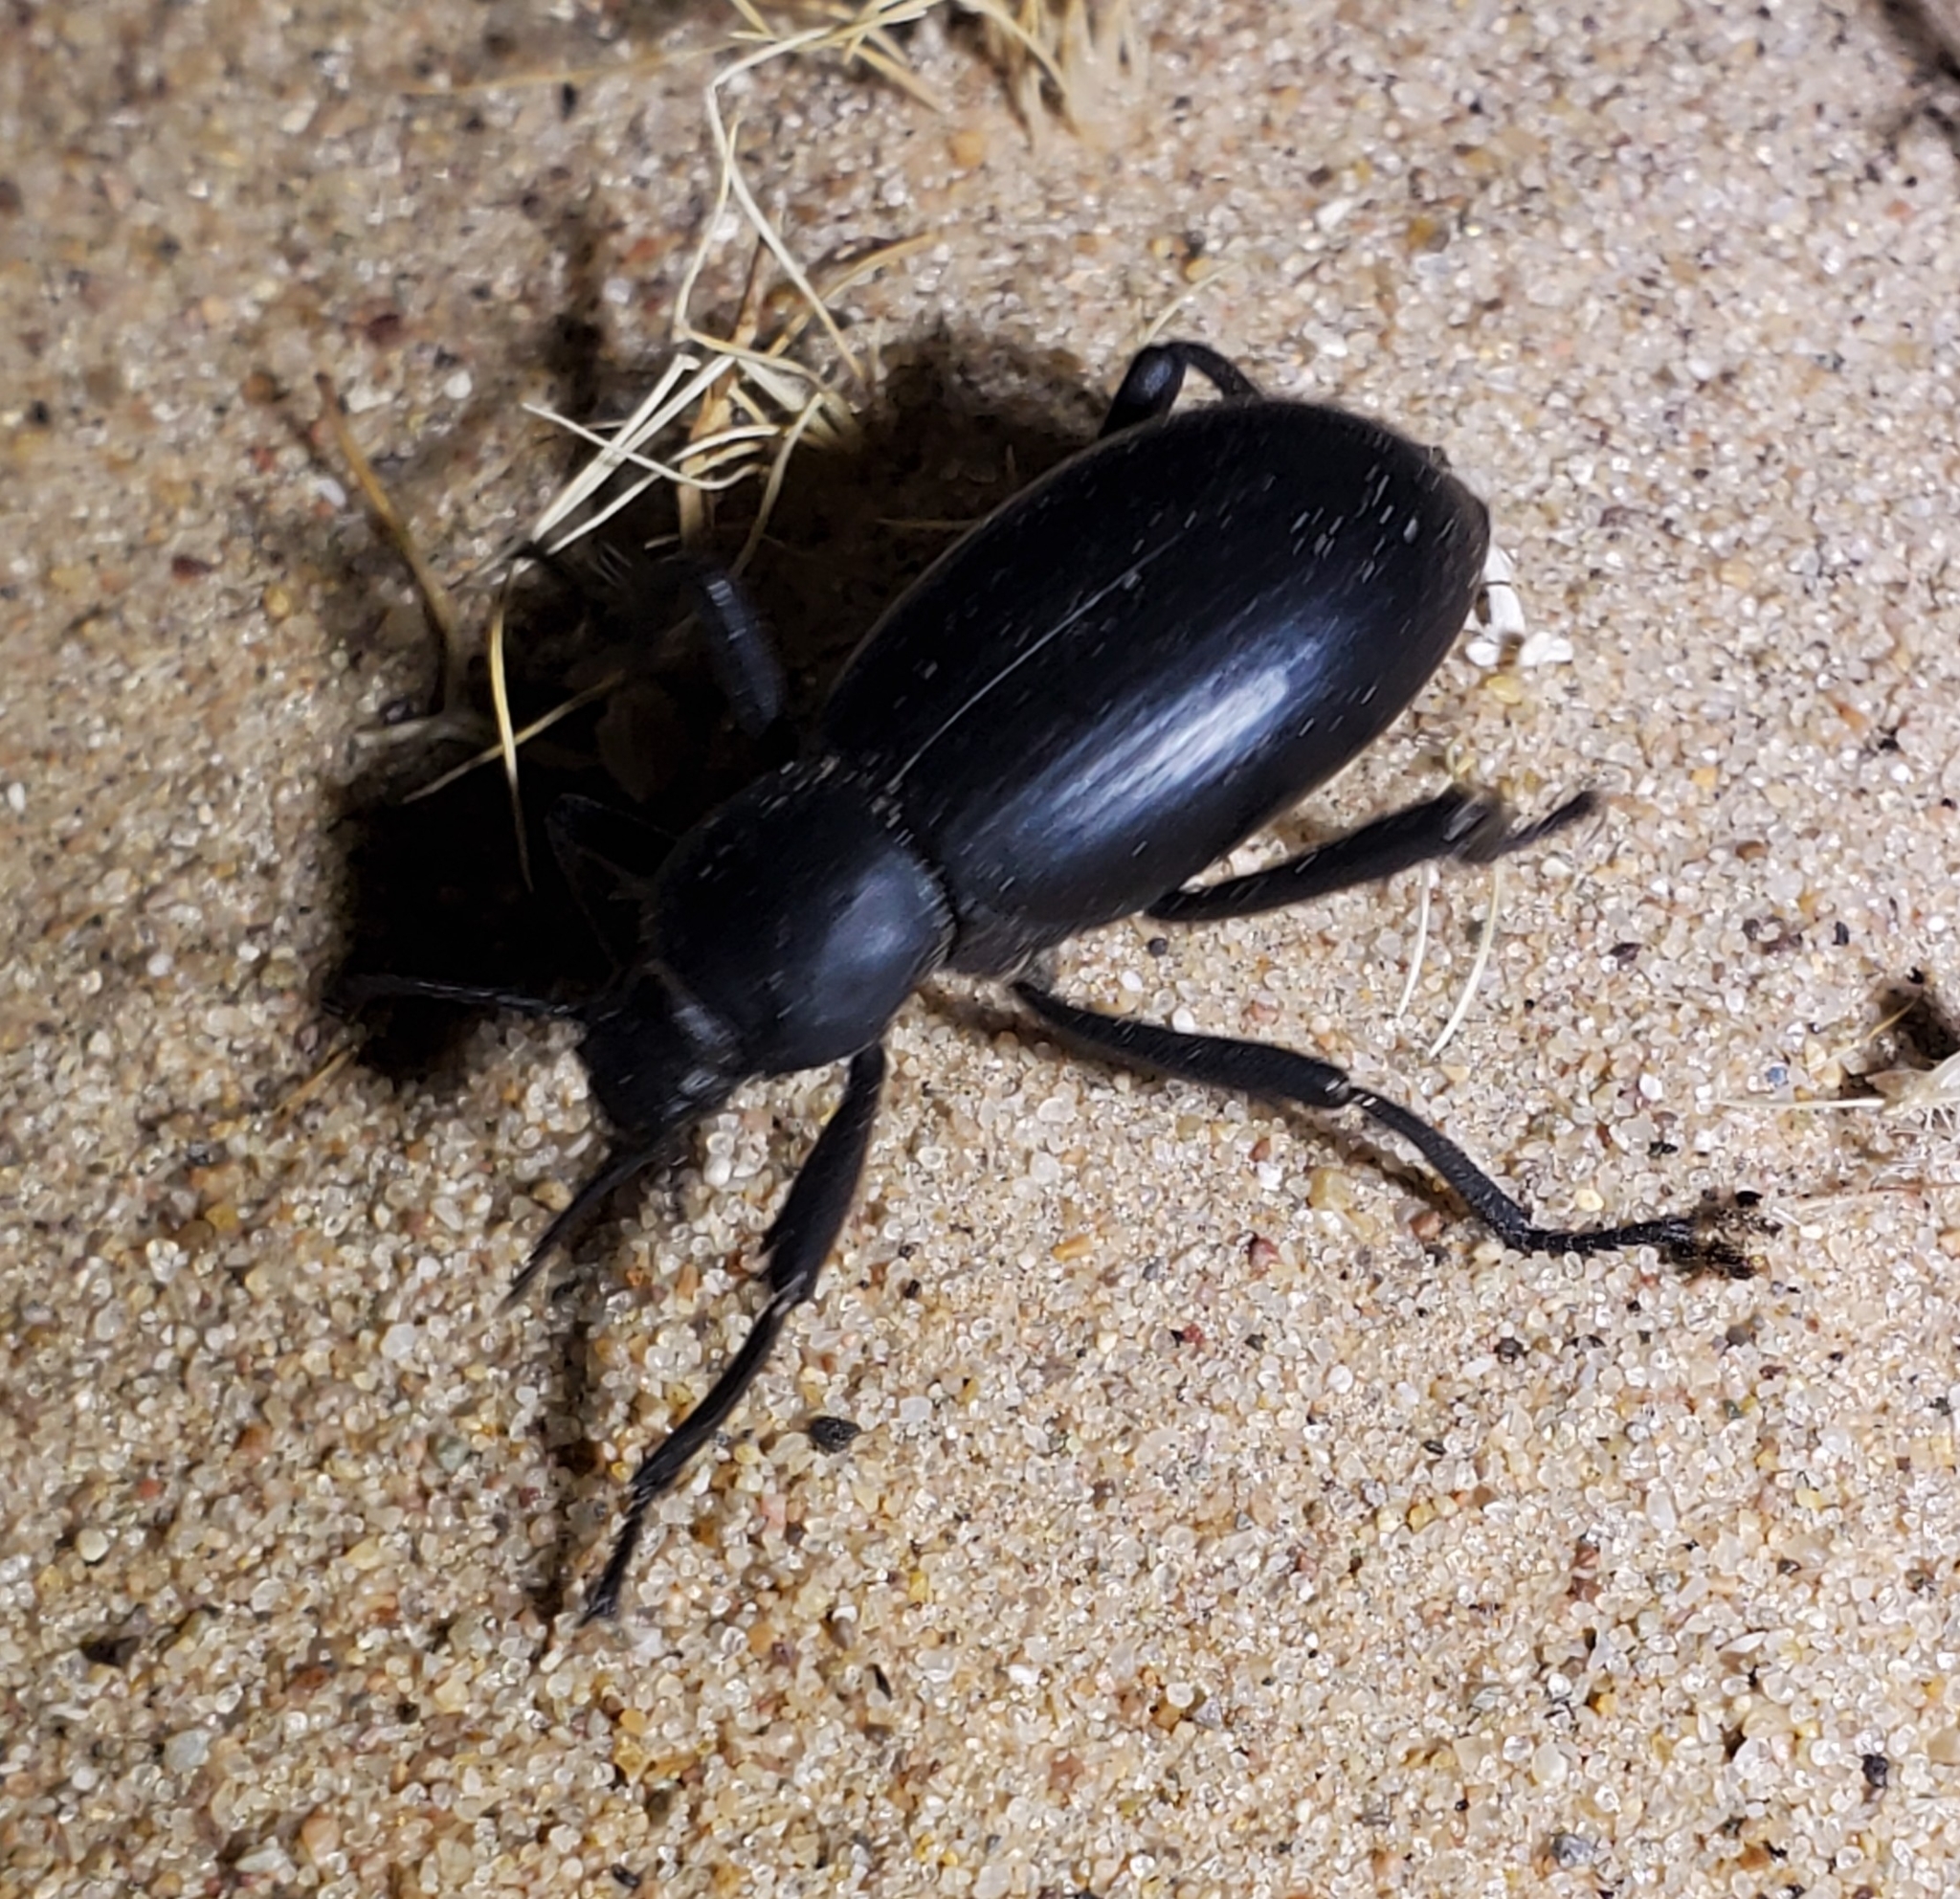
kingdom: Animalia
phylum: Arthropoda
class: Insecta
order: Coleoptera
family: Tenebrionidae
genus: Eleodes
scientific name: Eleodes armata
